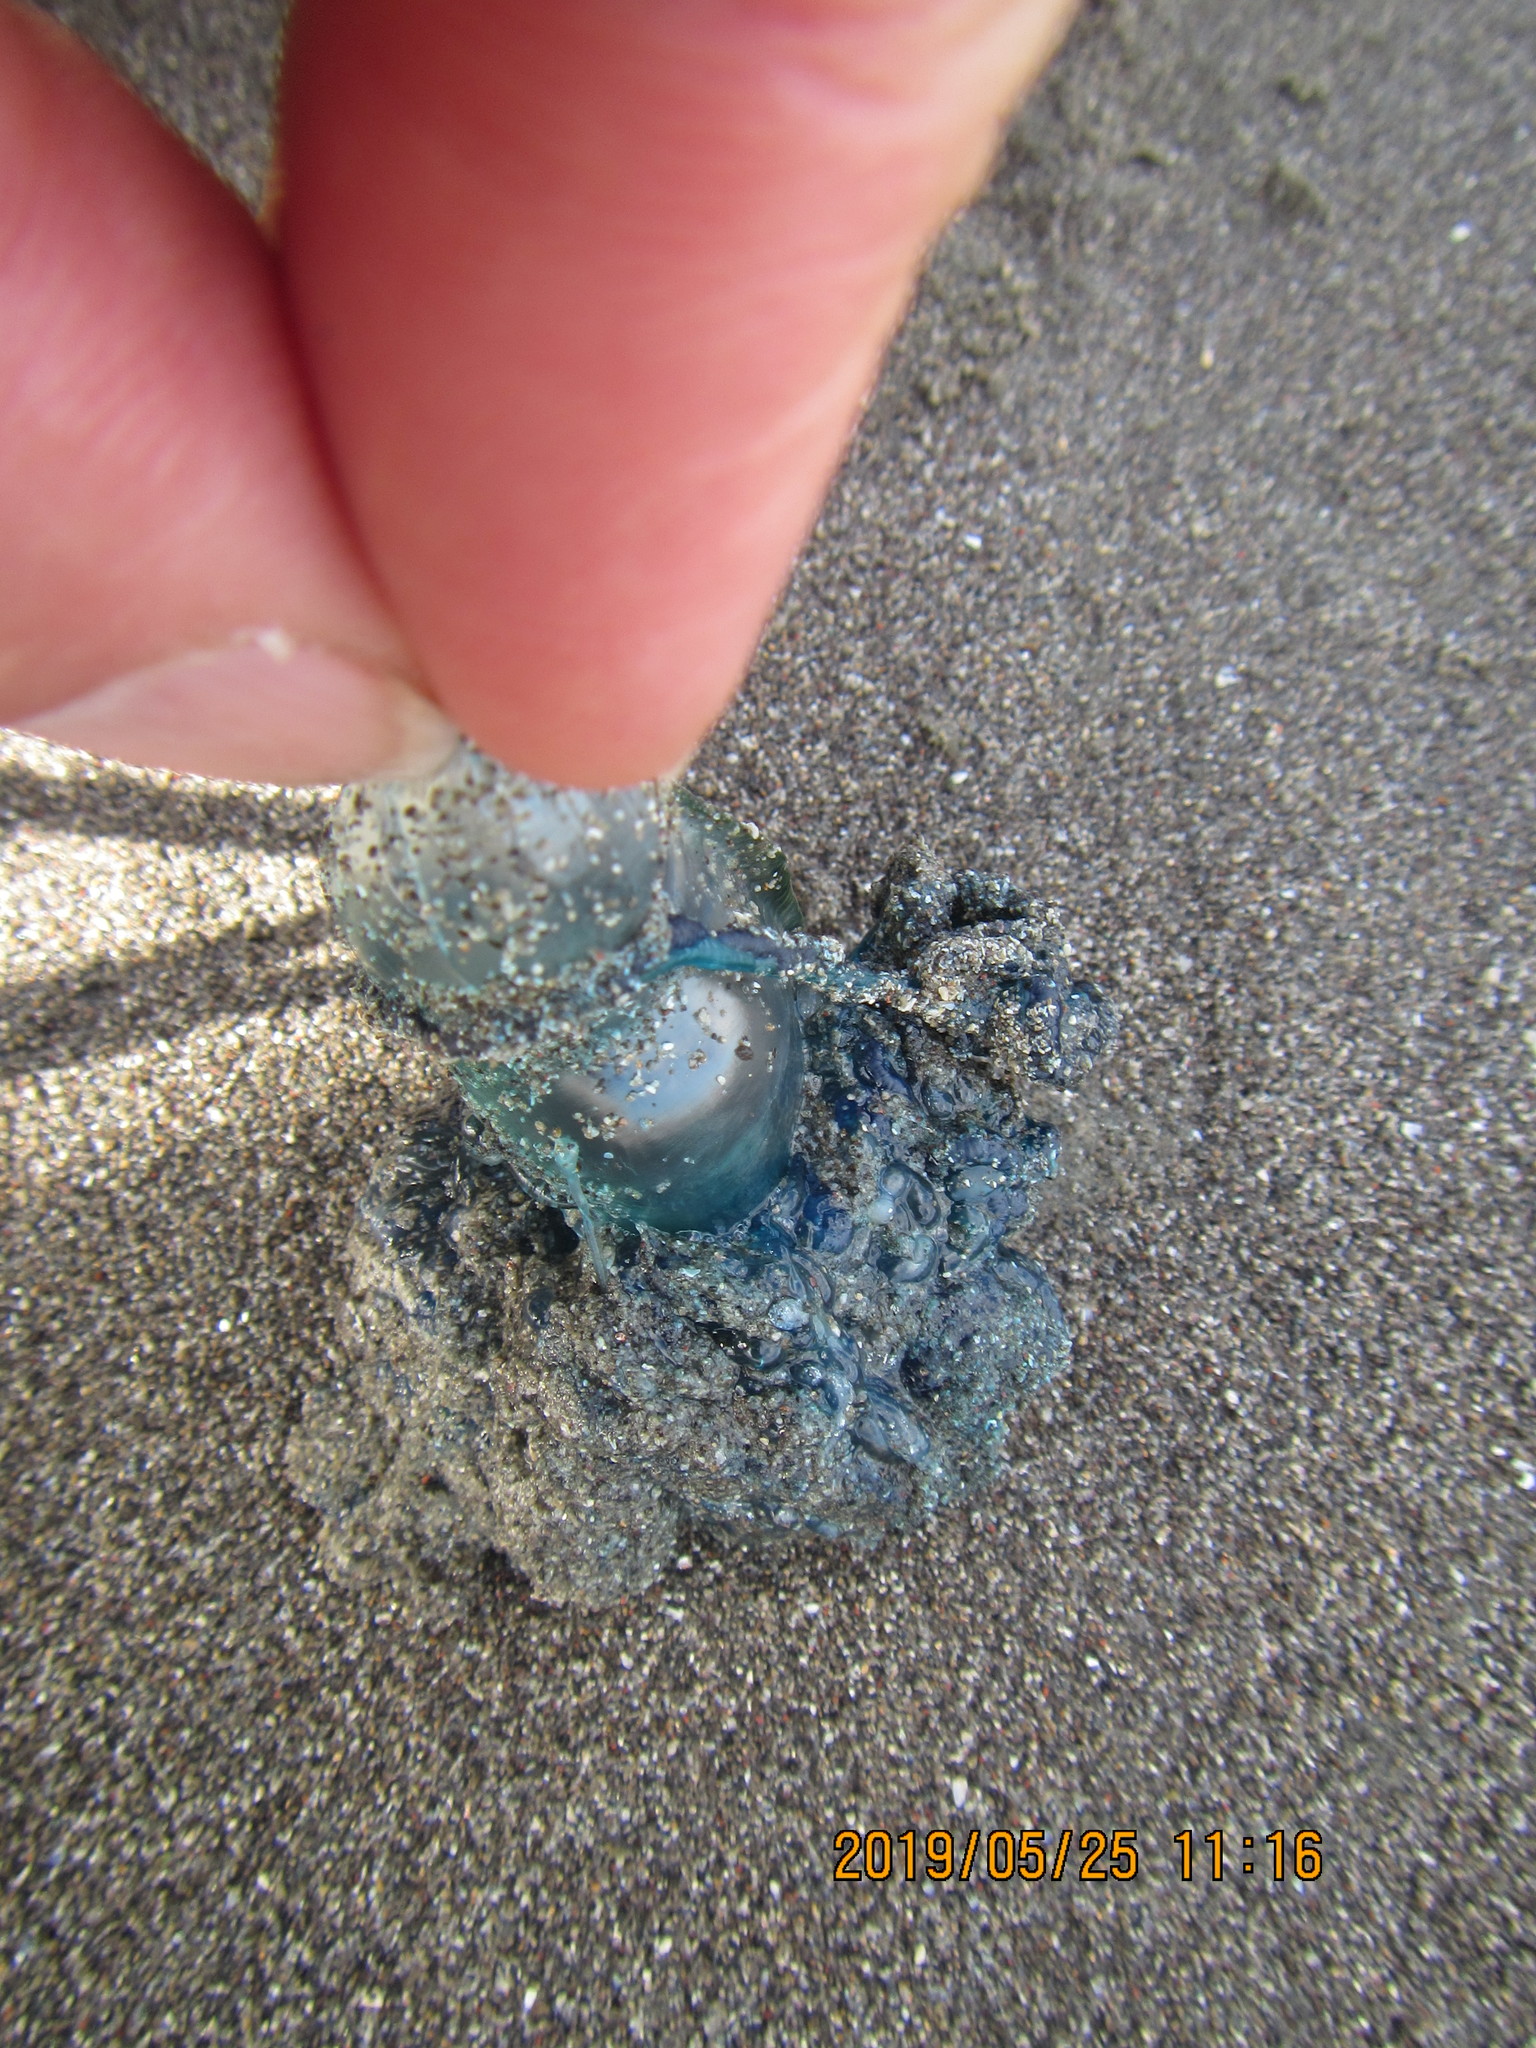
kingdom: Animalia
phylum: Cnidaria
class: Hydrozoa
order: Siphonophorae
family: Physaliidae
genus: Physalia
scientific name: Physalia physalis
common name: Portuguese man-of-war
